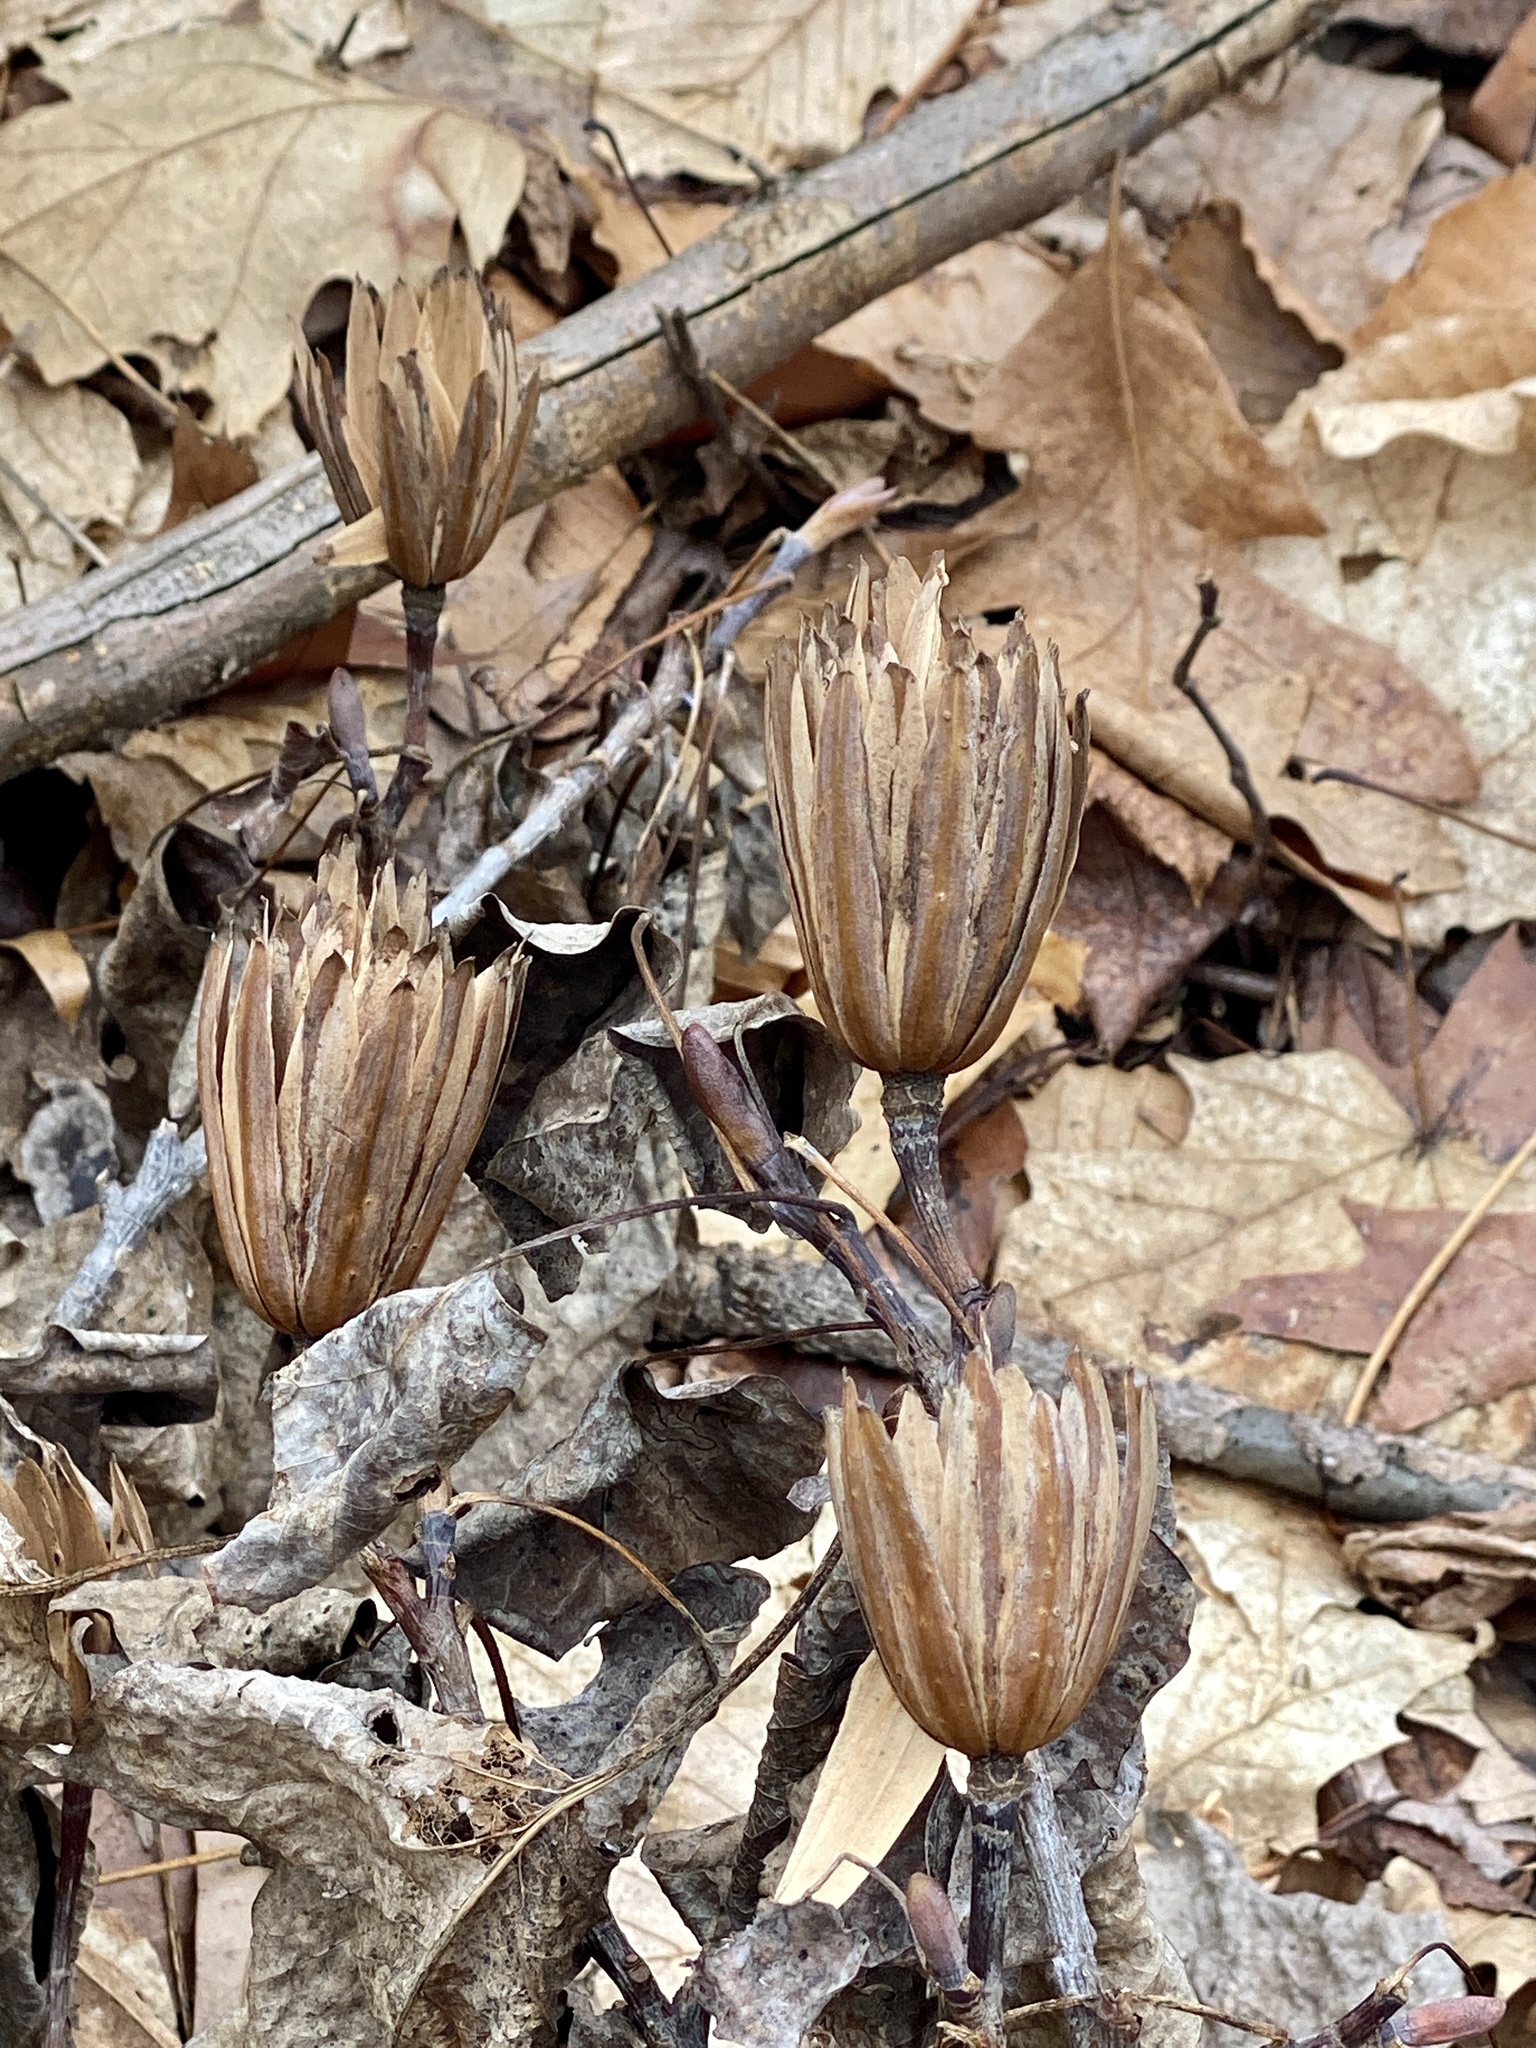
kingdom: Plantae
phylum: Tracheophyta
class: Magnoliopsida
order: Magnoliales
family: Magnoliaceae
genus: Liriodendron
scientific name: Liriodendron tulipifera
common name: Tulip tree
